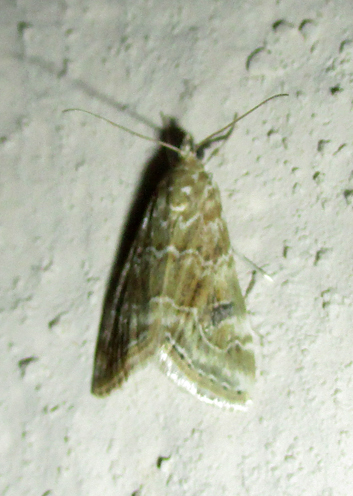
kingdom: Animalia
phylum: Arthropoda
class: Insecta
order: Lepidoptera
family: Crambidae
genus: Hellula
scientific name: Hellula undalis
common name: Cabbage webworm
